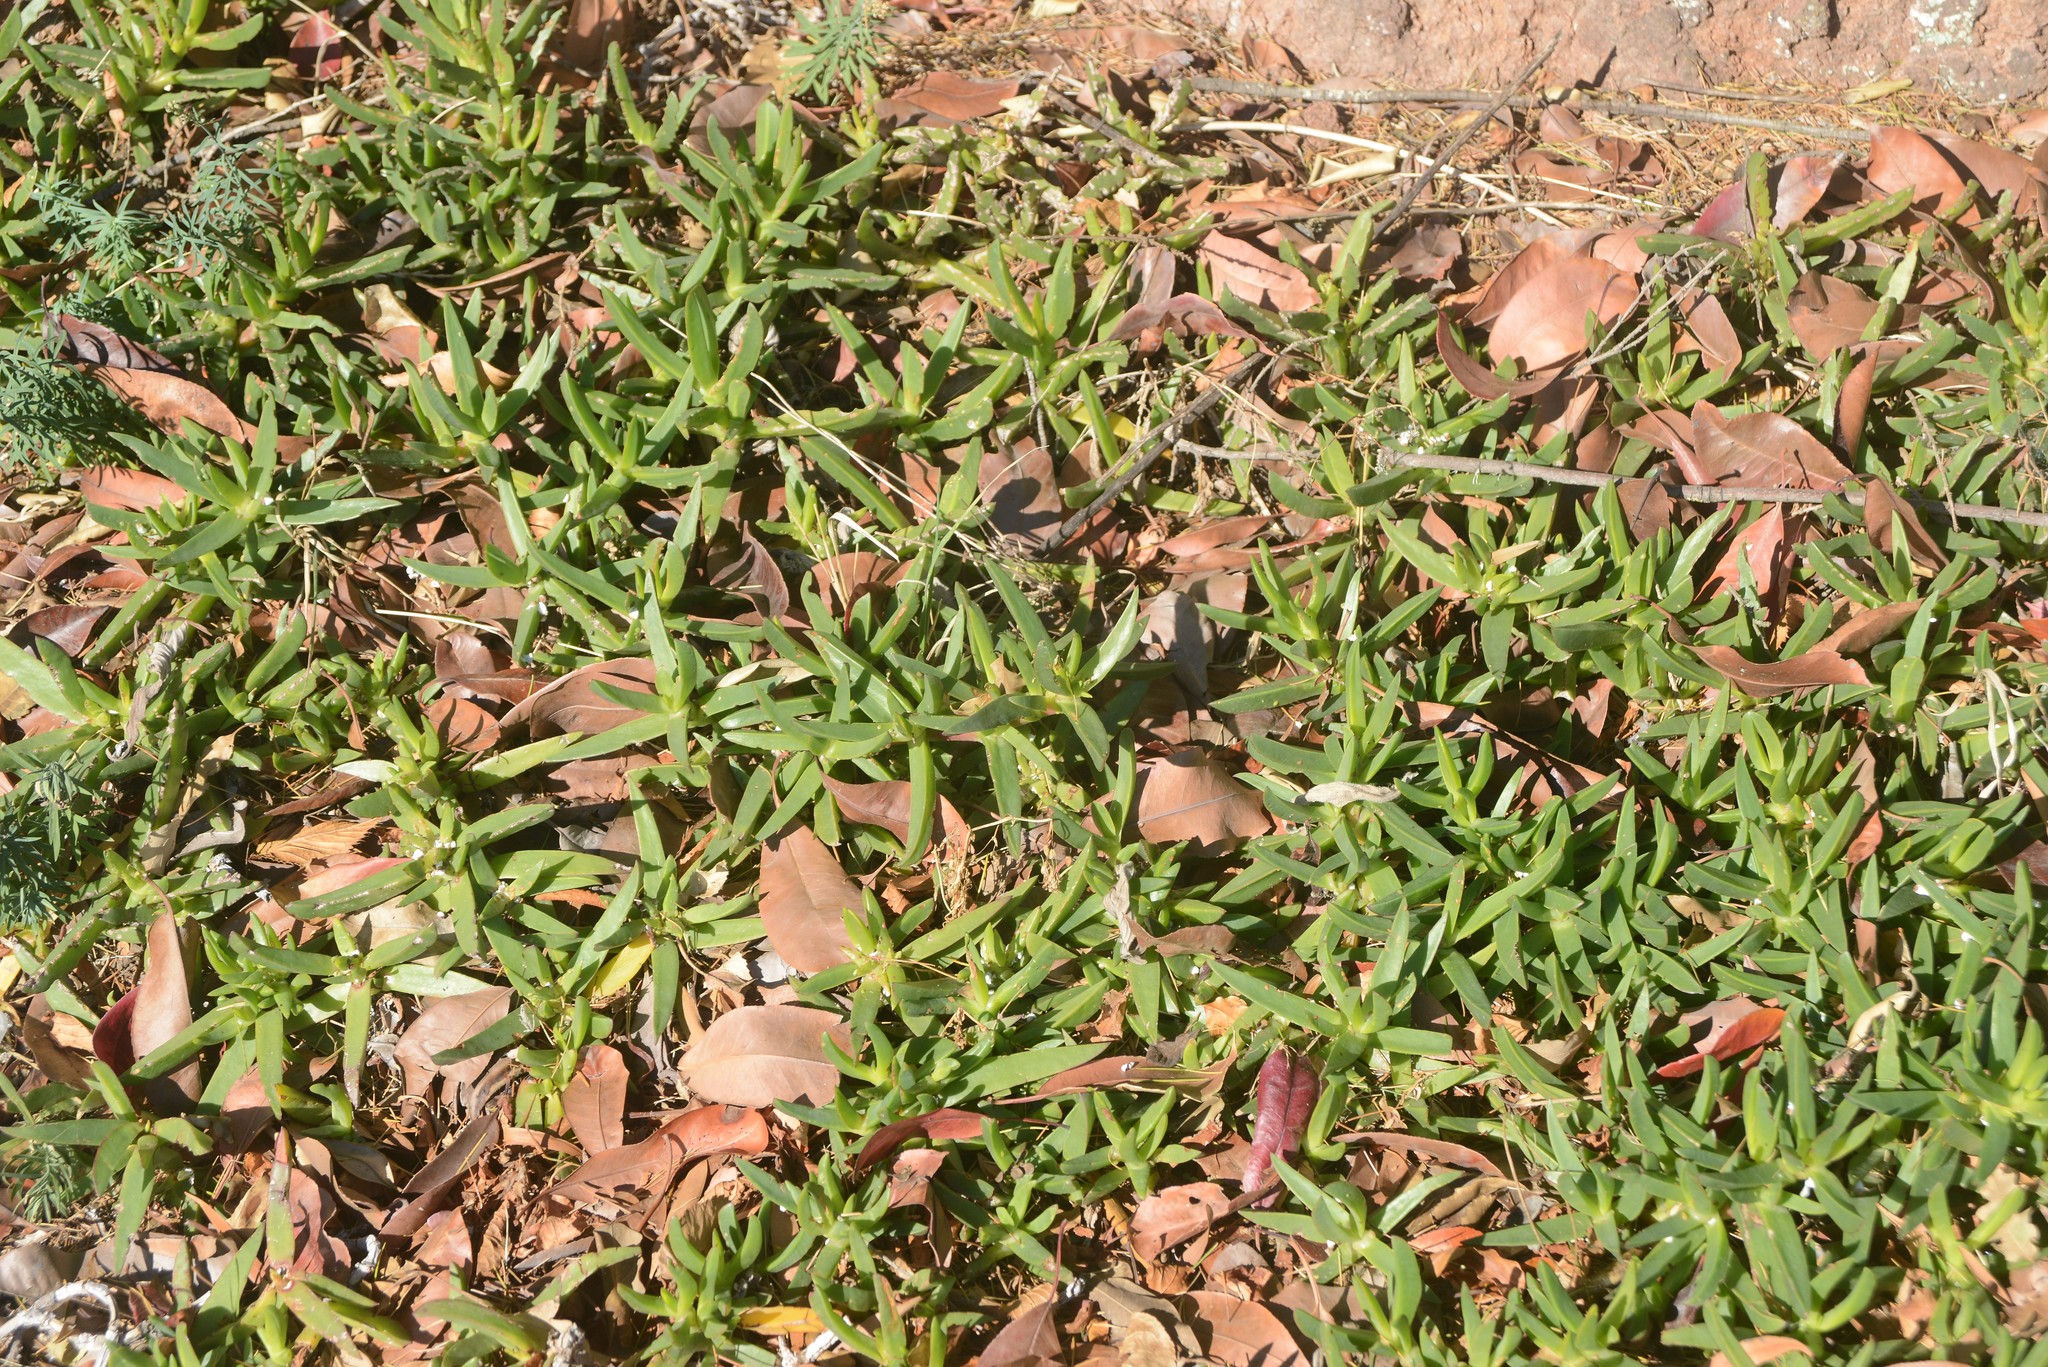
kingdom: Plantae
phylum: Tracheophyta
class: Magnoliopsida
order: Caryophyllales
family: Aizoaceae
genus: Carpobrotus
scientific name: Carpobrotus
